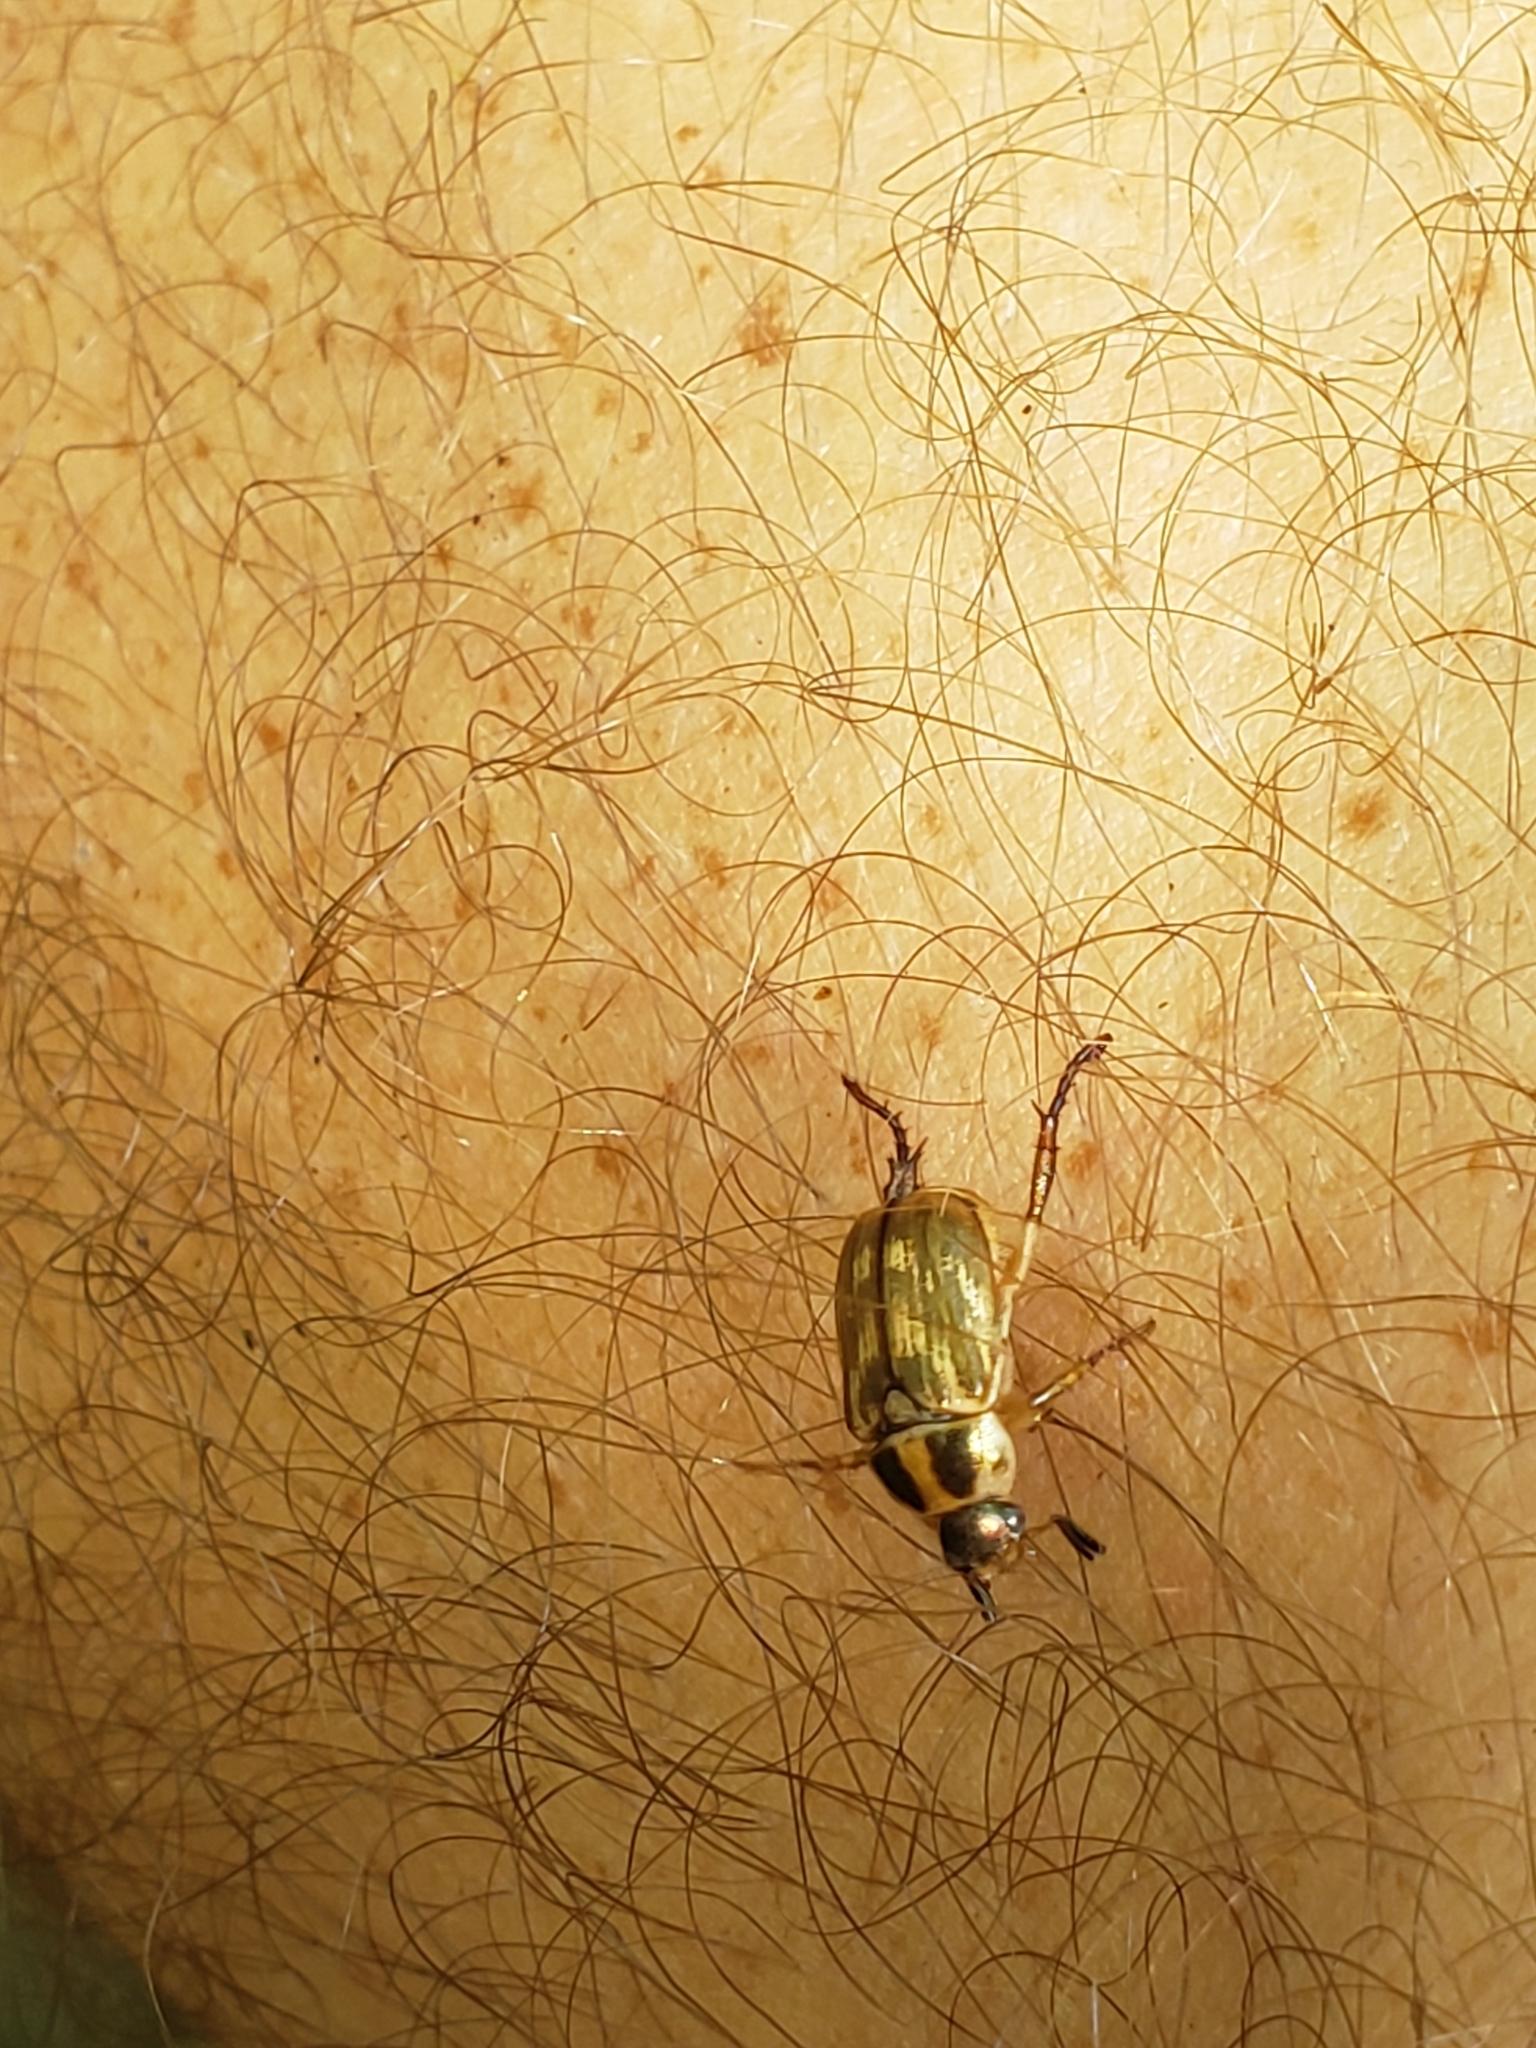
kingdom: Animalia
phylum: Arthropoda
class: Insecta
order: Coleoptera
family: Scarabaeidae
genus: Exomala
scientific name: Exomala orientalis
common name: Oriental beetle
